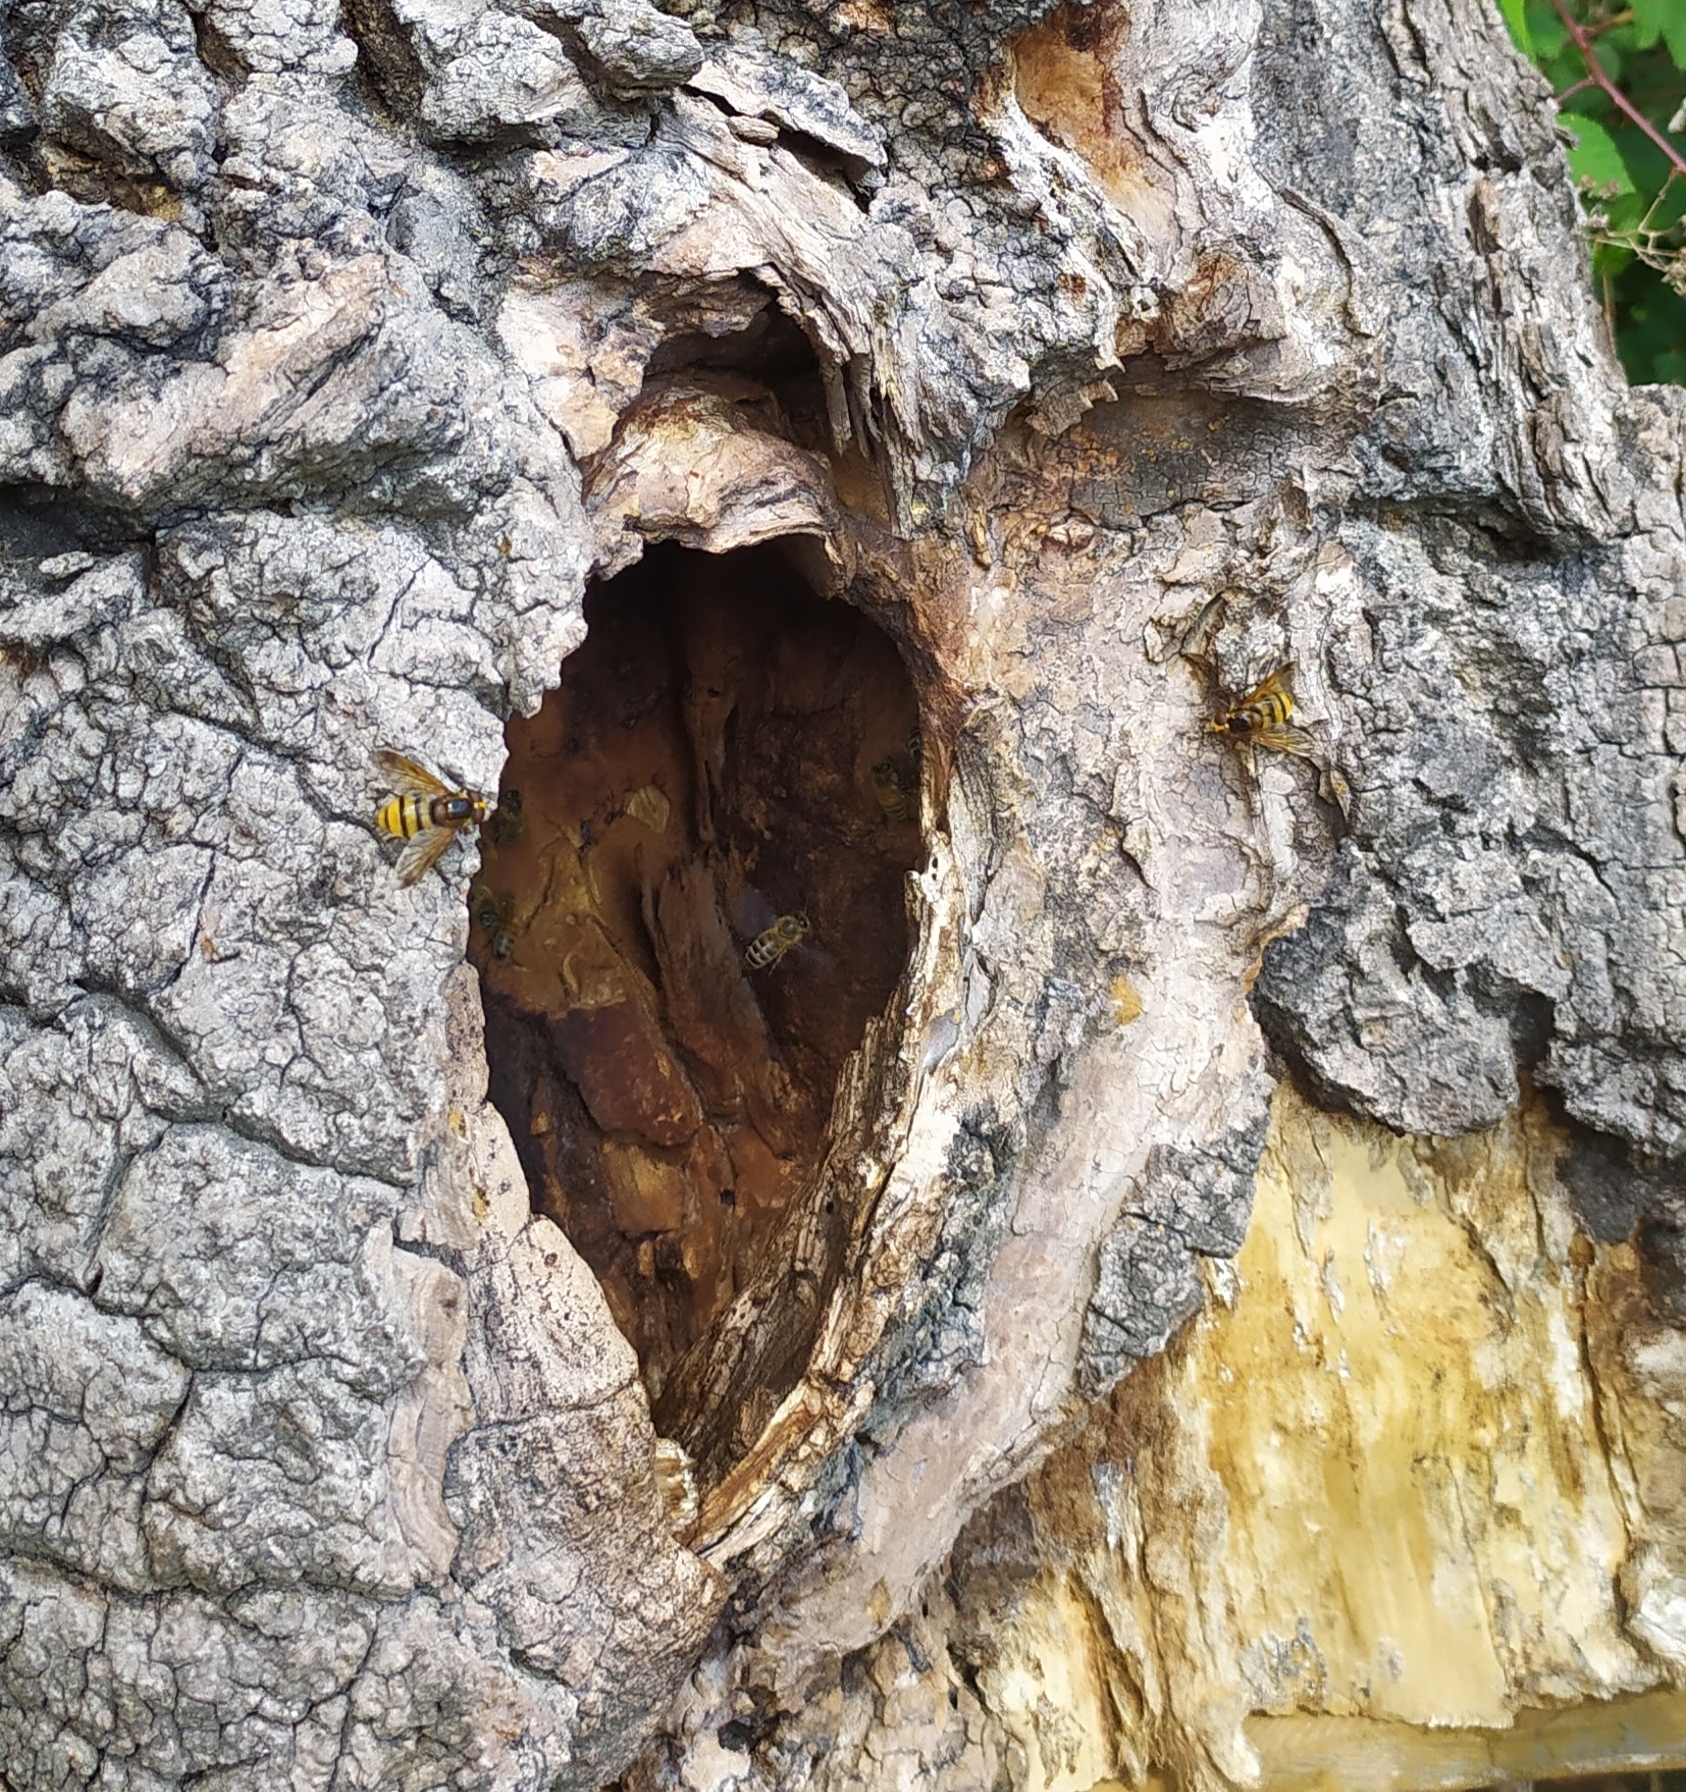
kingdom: Animalia
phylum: Arthropoda
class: Insecta
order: Diptera
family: Syrphidae
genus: Volucella
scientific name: Volucella inanis
